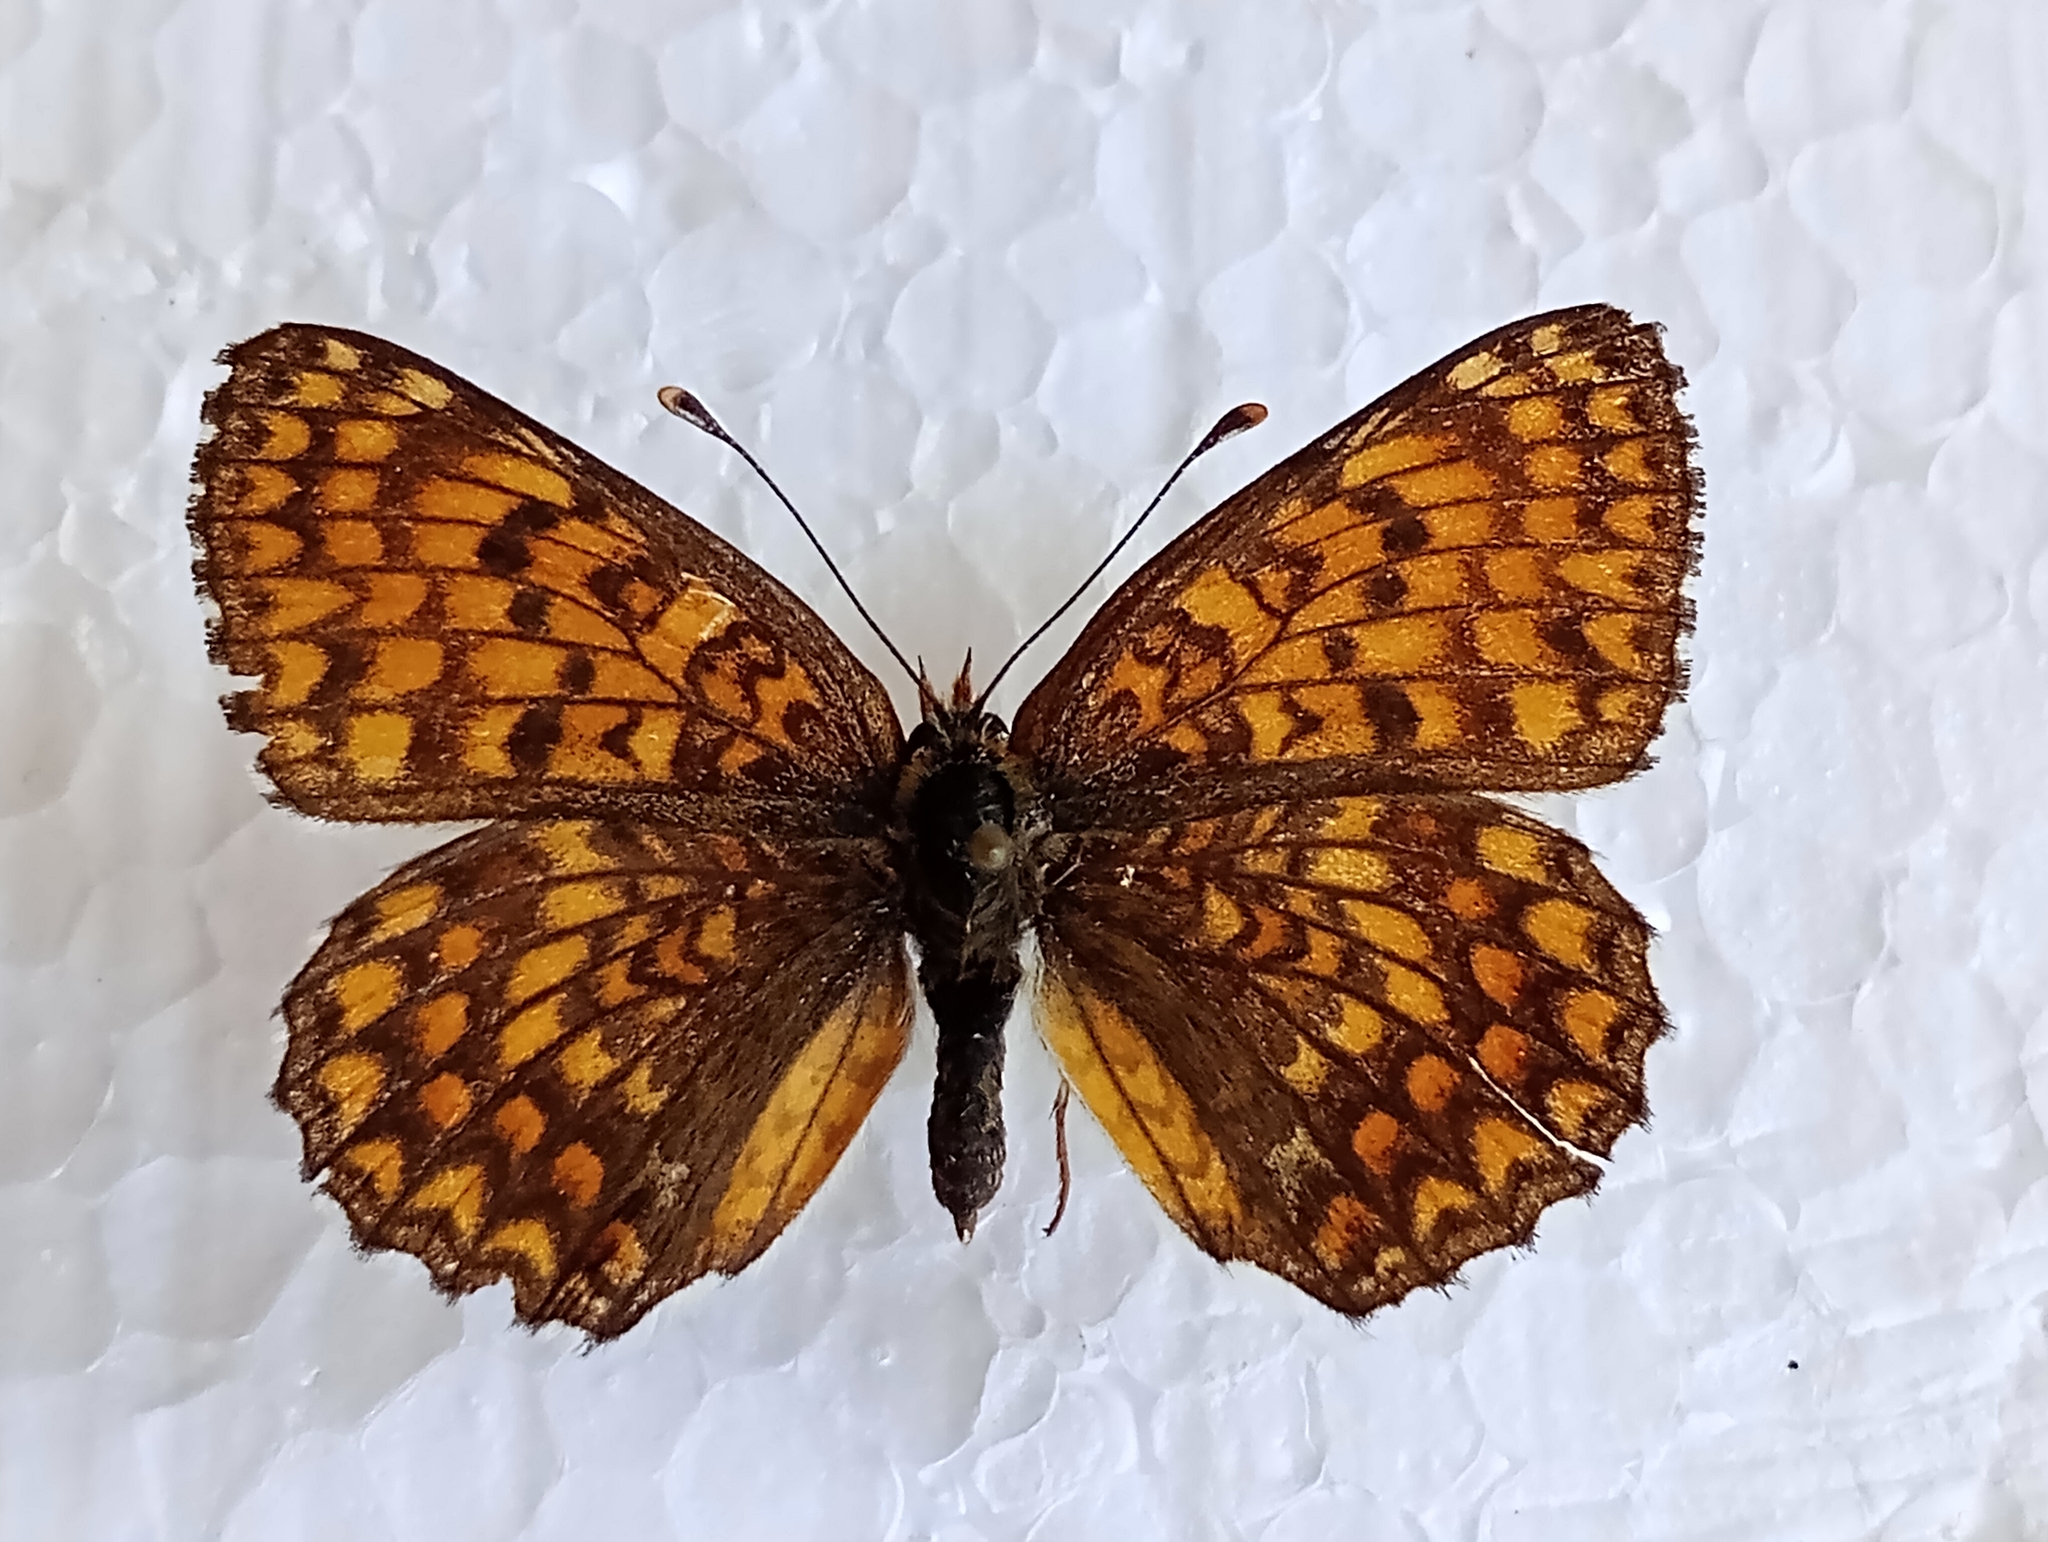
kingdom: Animalia
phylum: Arthropoda
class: Insecta
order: Lepidoptera
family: Nymphalidae
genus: Melitaea
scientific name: Melitaea phoebe
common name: Knapweed fritillary
